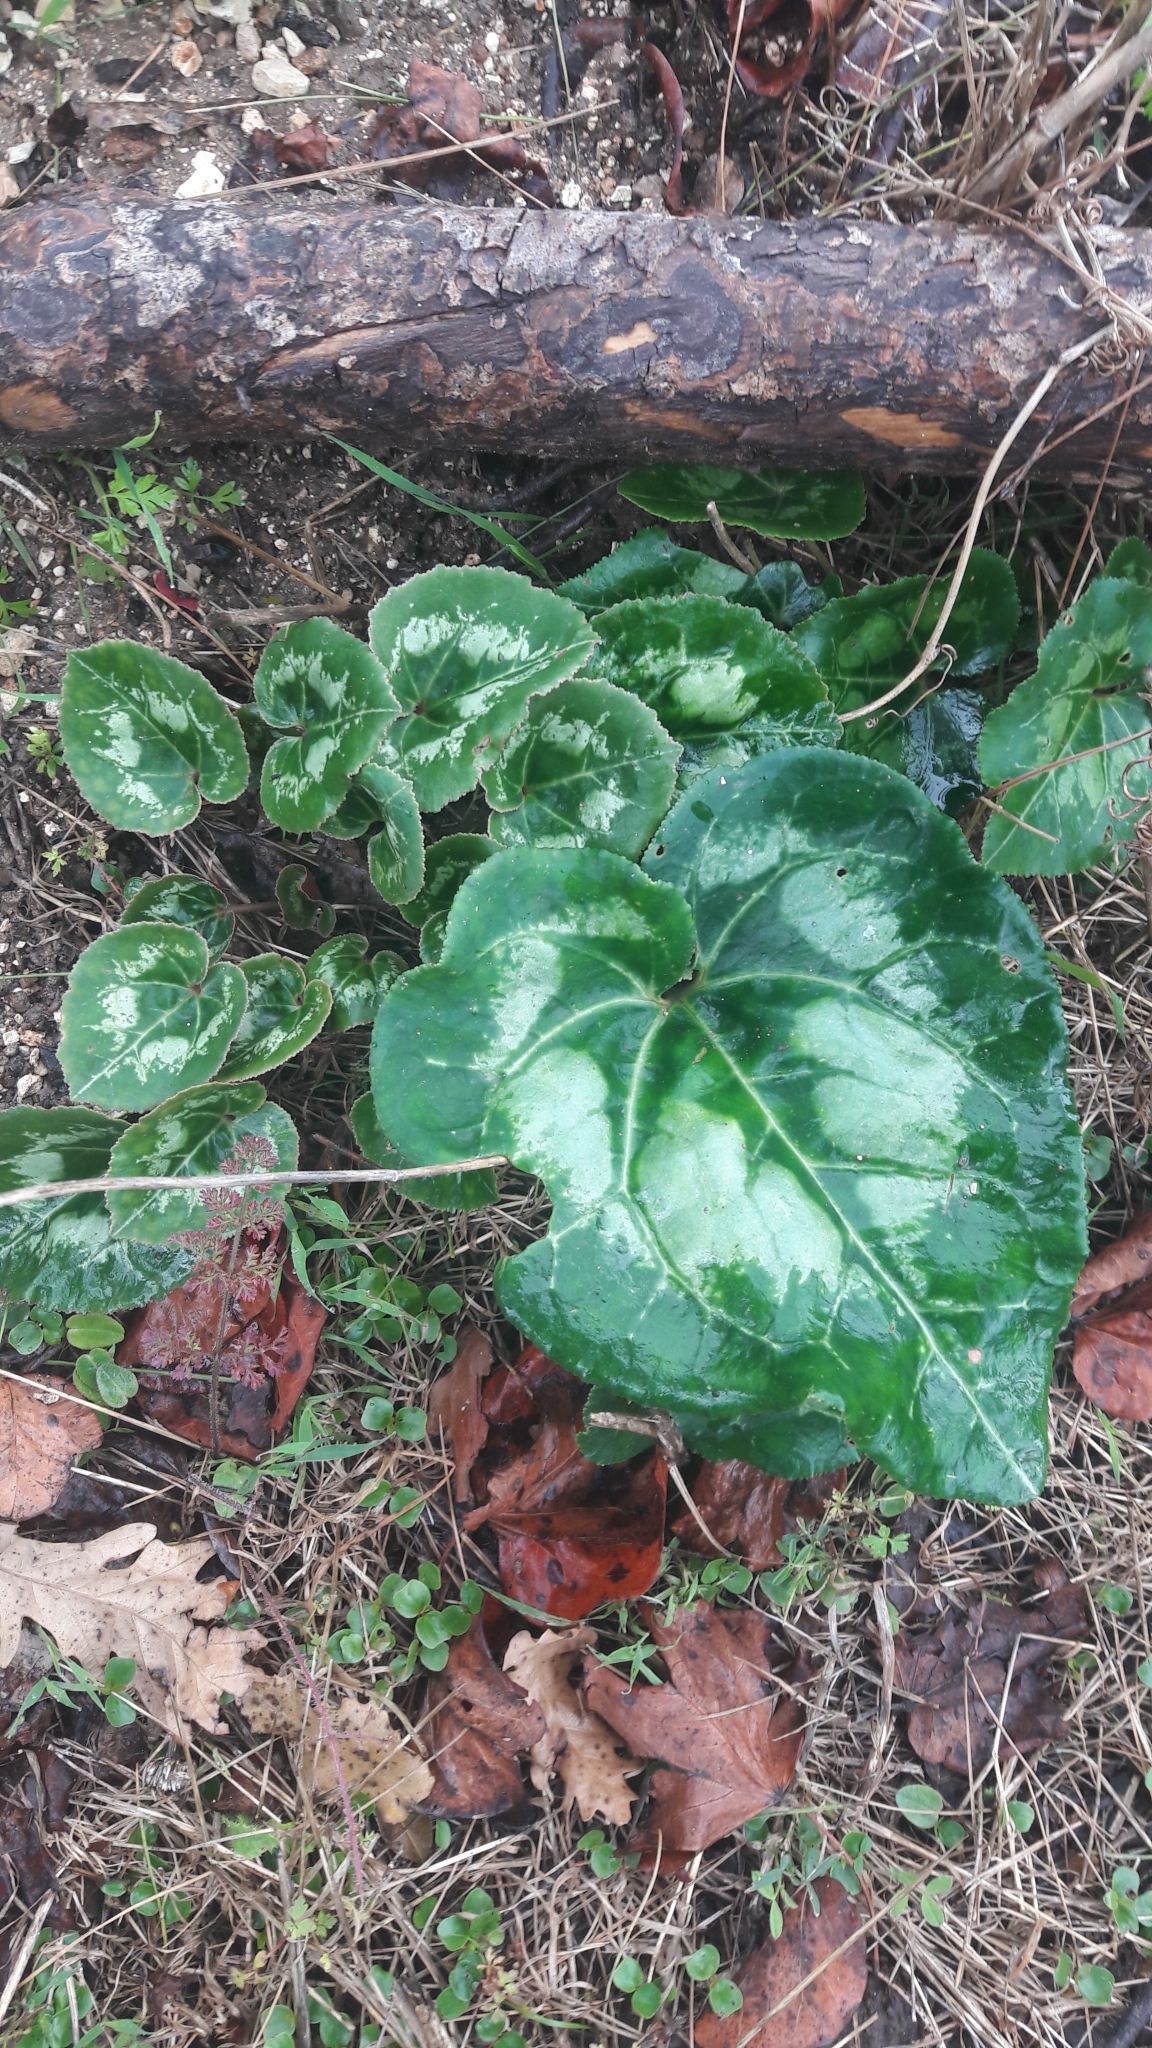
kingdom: Plantae
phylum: Tracheophyta
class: Magnoliopsida
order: Ericales
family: Primulaceae
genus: Cyclamen
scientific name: Cyclamen persicum
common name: Florist's cyclamen
